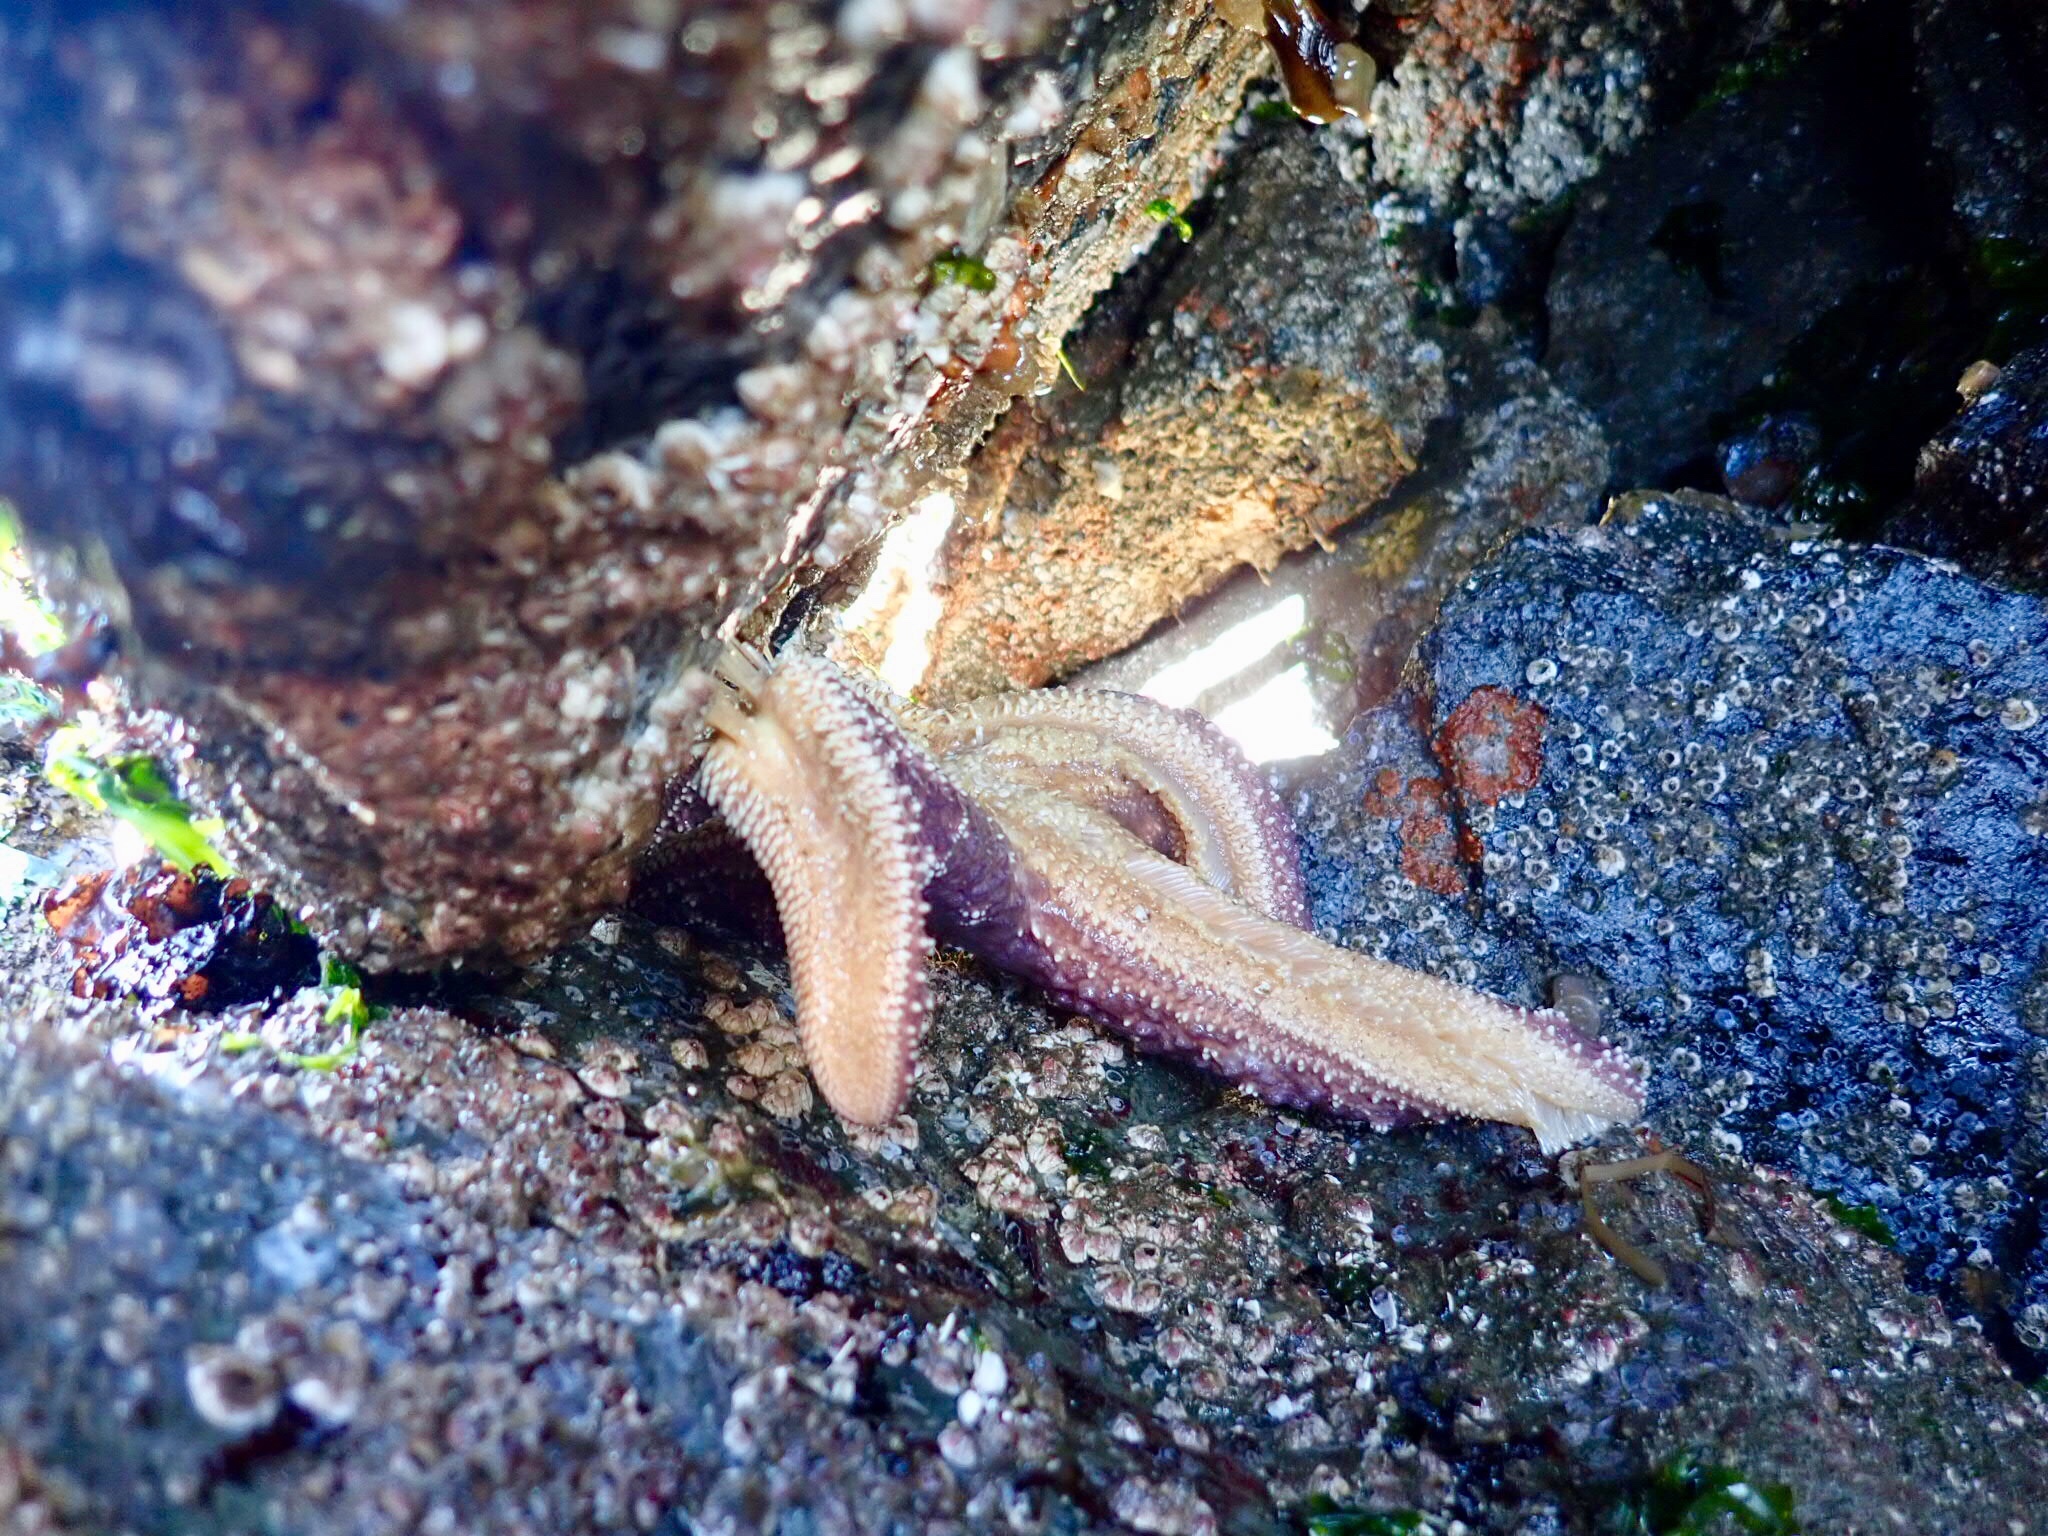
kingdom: Animalia
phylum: Echinodermata
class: Asteroidea
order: Forcipulatida
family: Asteriidae
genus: Pisaster
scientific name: Pisaster ochraceus
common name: Ochre stars
